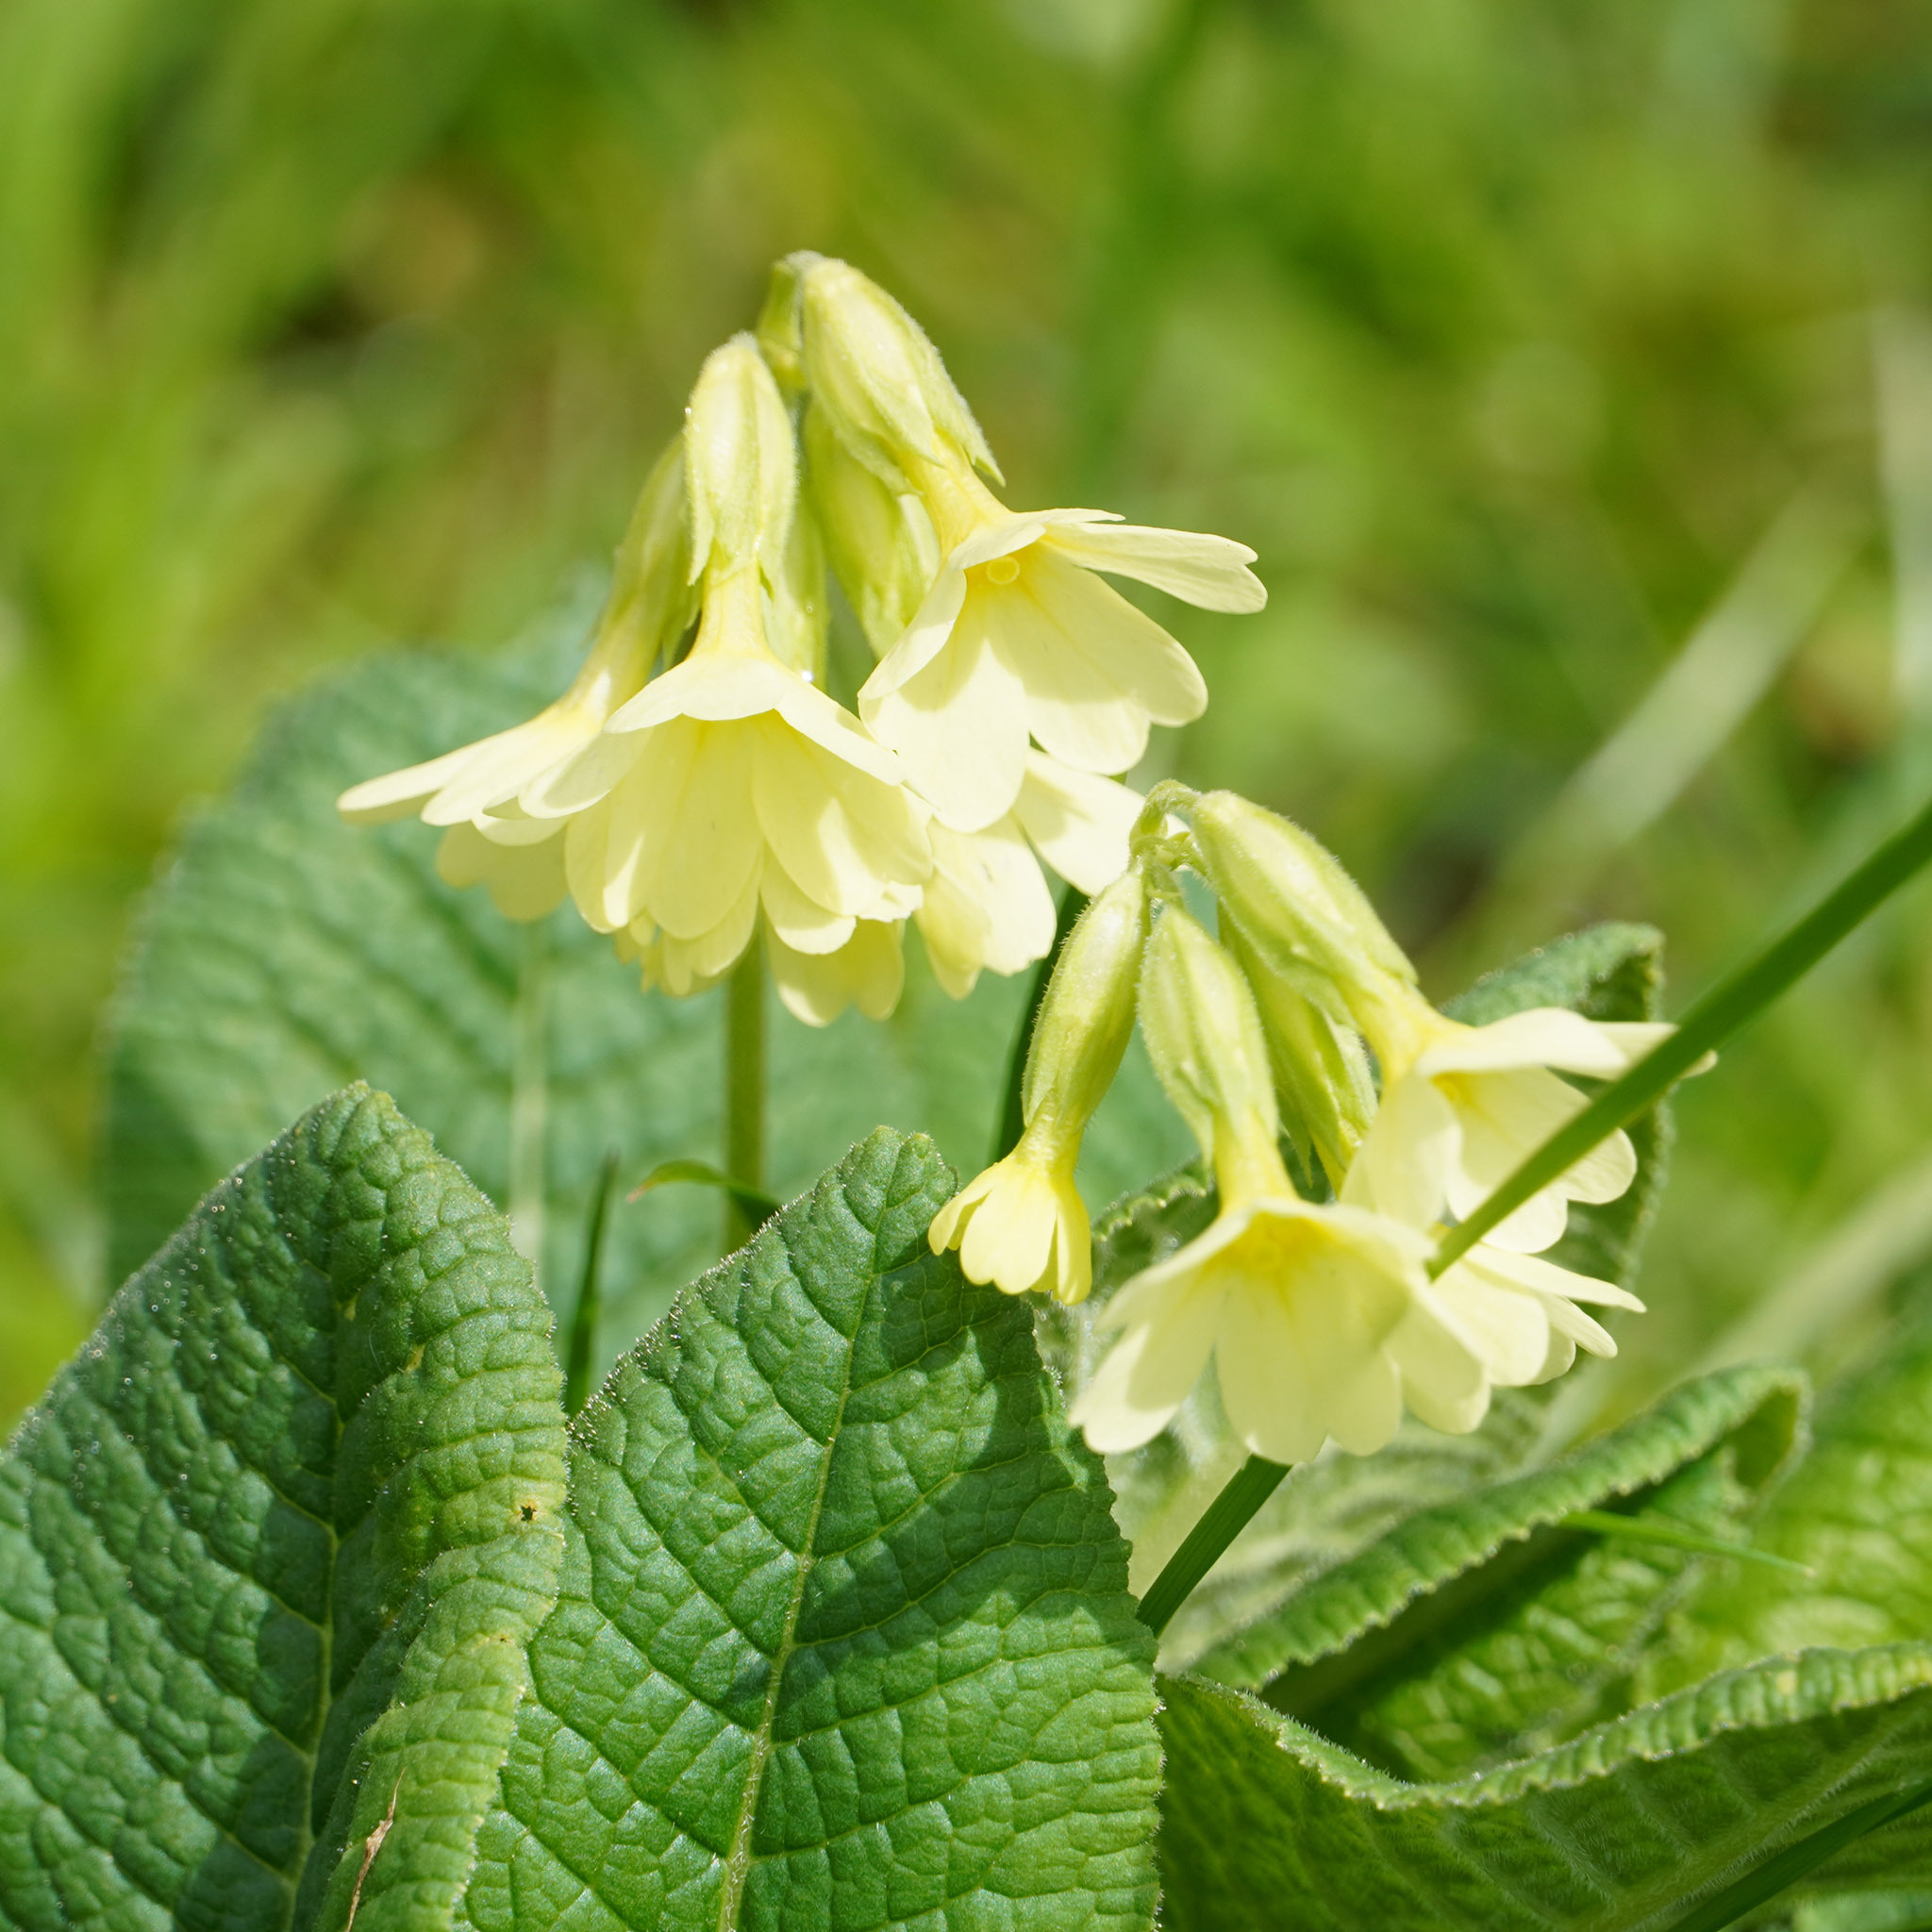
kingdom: Plantae
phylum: Tracheophyta
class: Magnoliopsida
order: Ericales
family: Primulaceae
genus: Primula
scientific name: Primula elatior
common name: Oxlip
